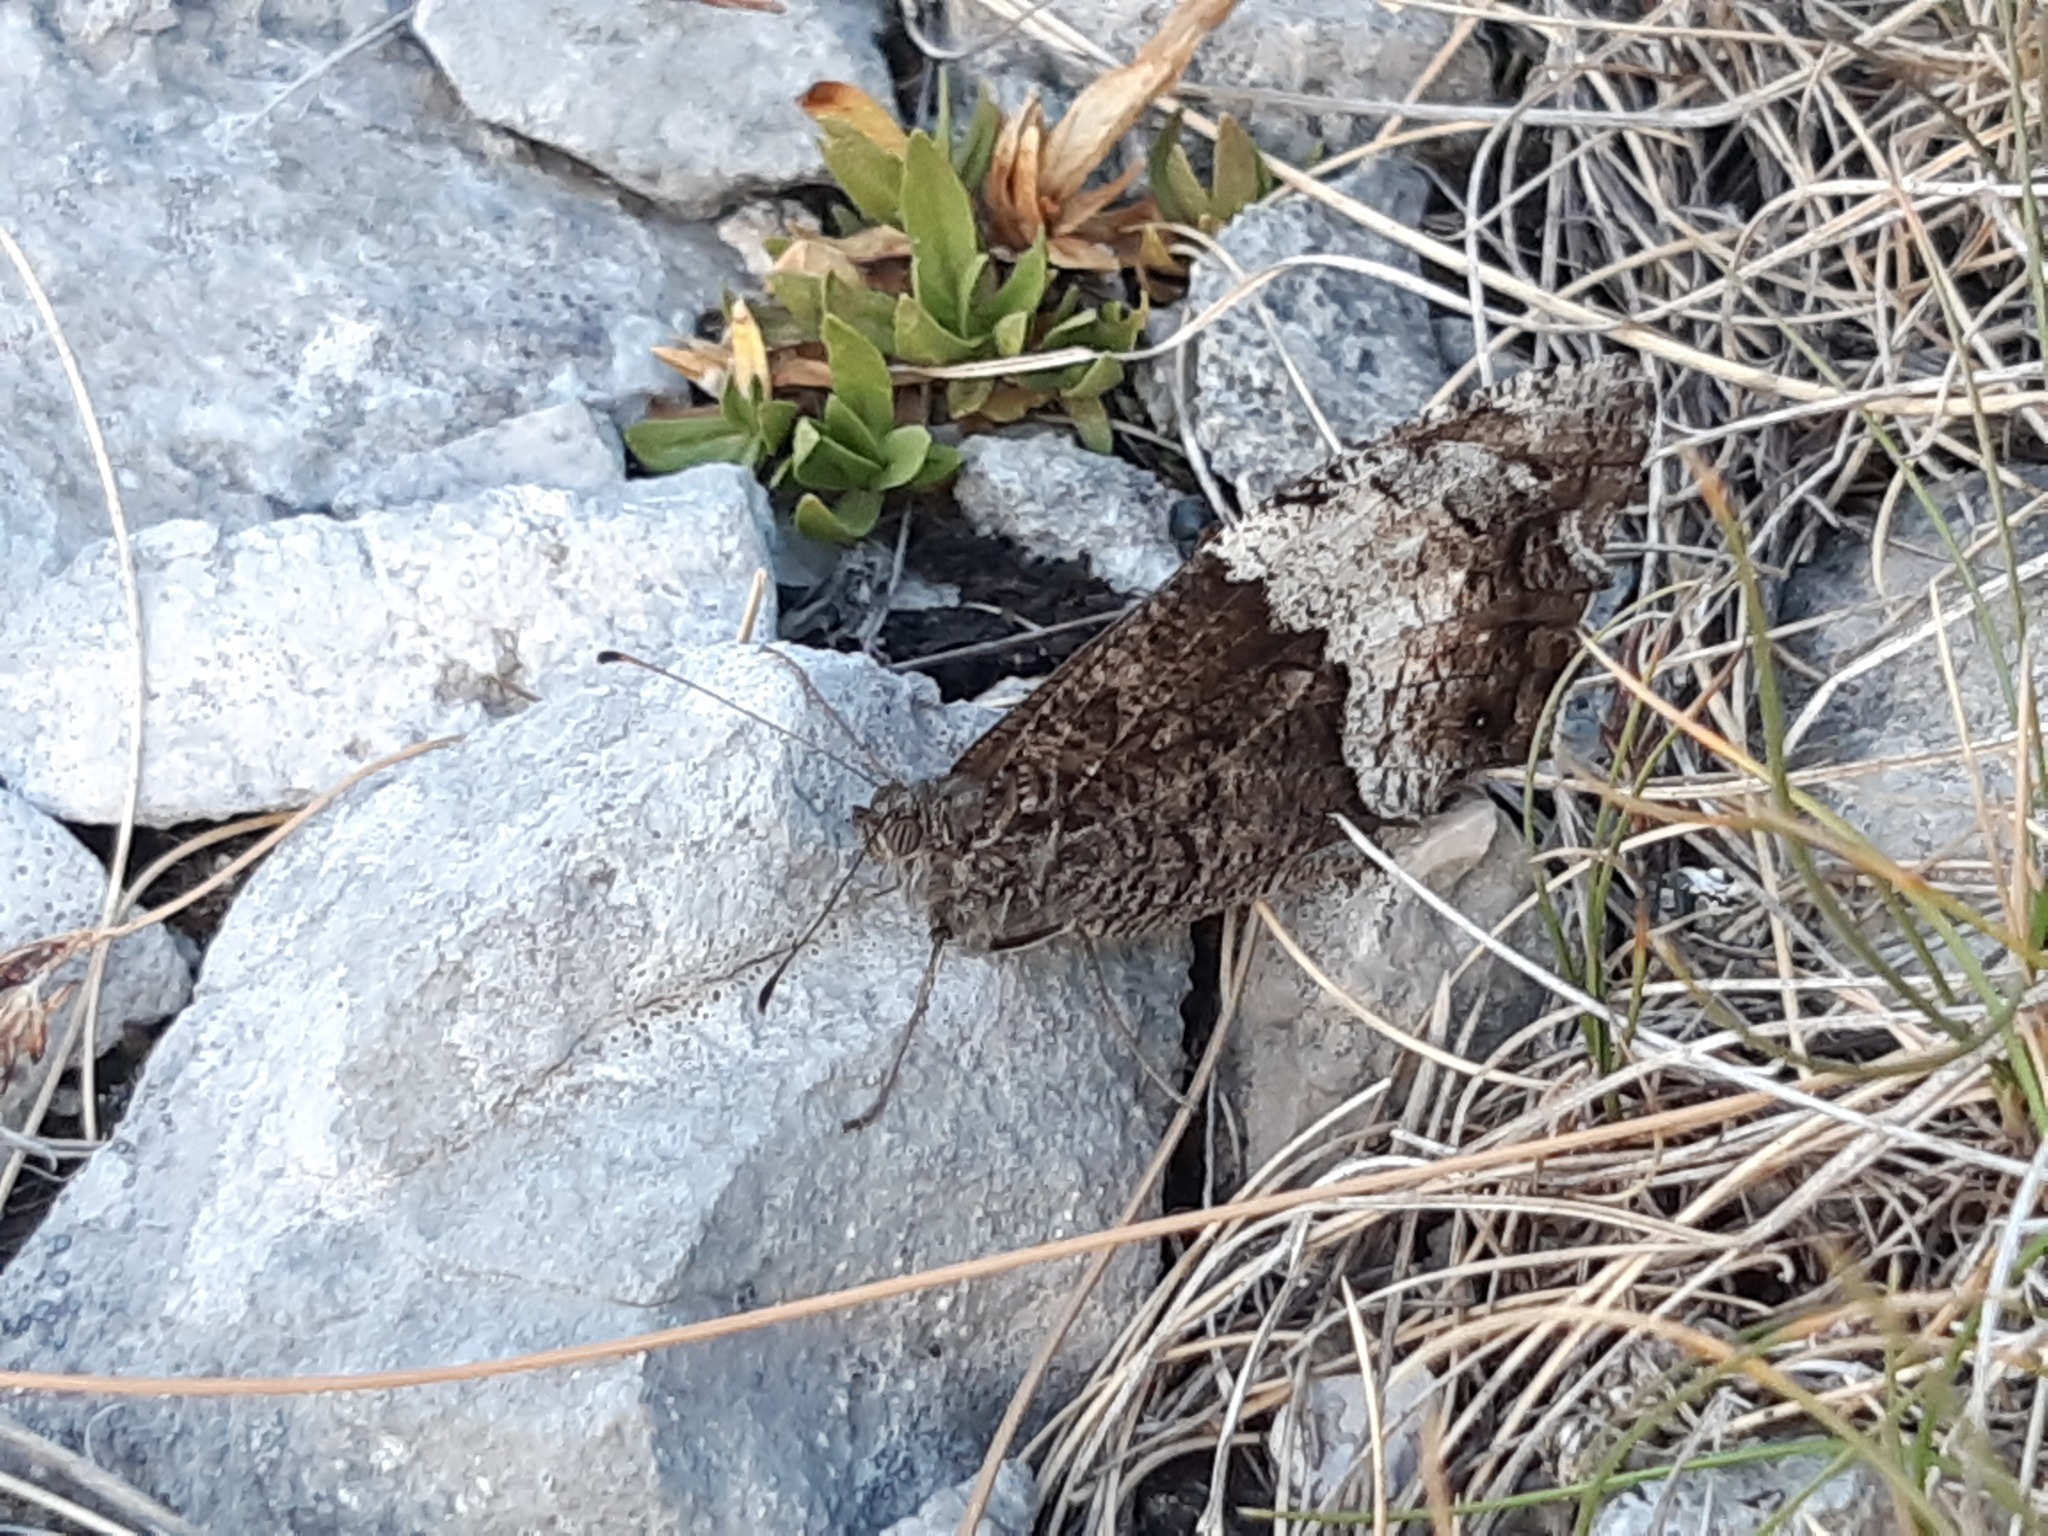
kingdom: Animalia
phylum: Arthropoda
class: Insecta
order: Lepidoptera
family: Nymphalidae
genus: Hipparchia
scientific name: Hipparchia statilinus
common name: Tree grayling
